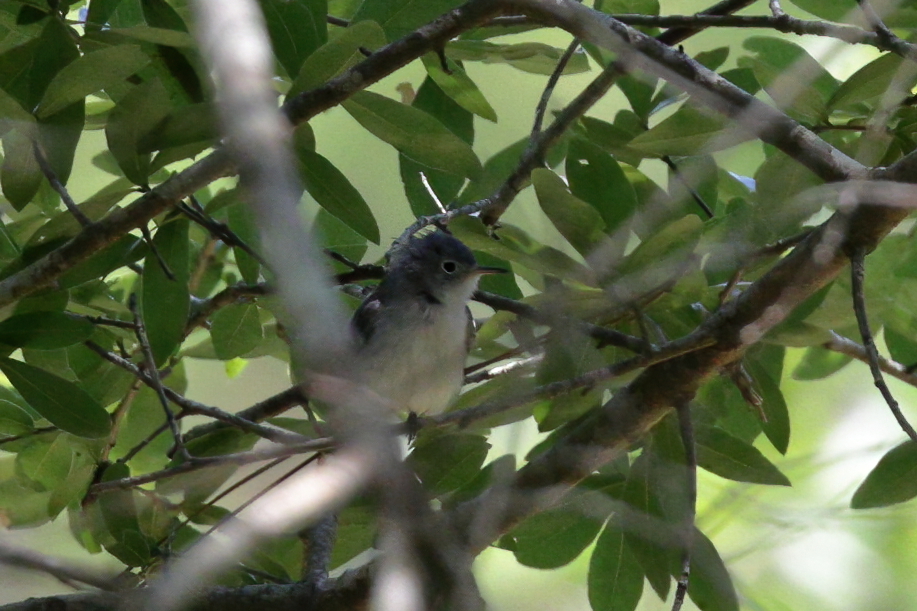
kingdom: Animalia
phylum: Chordata
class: Aves
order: Passeriformes
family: Polioptilidae
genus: Polioptila
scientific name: Polioptila caerulea
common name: Blue-gray gnatcatcher
